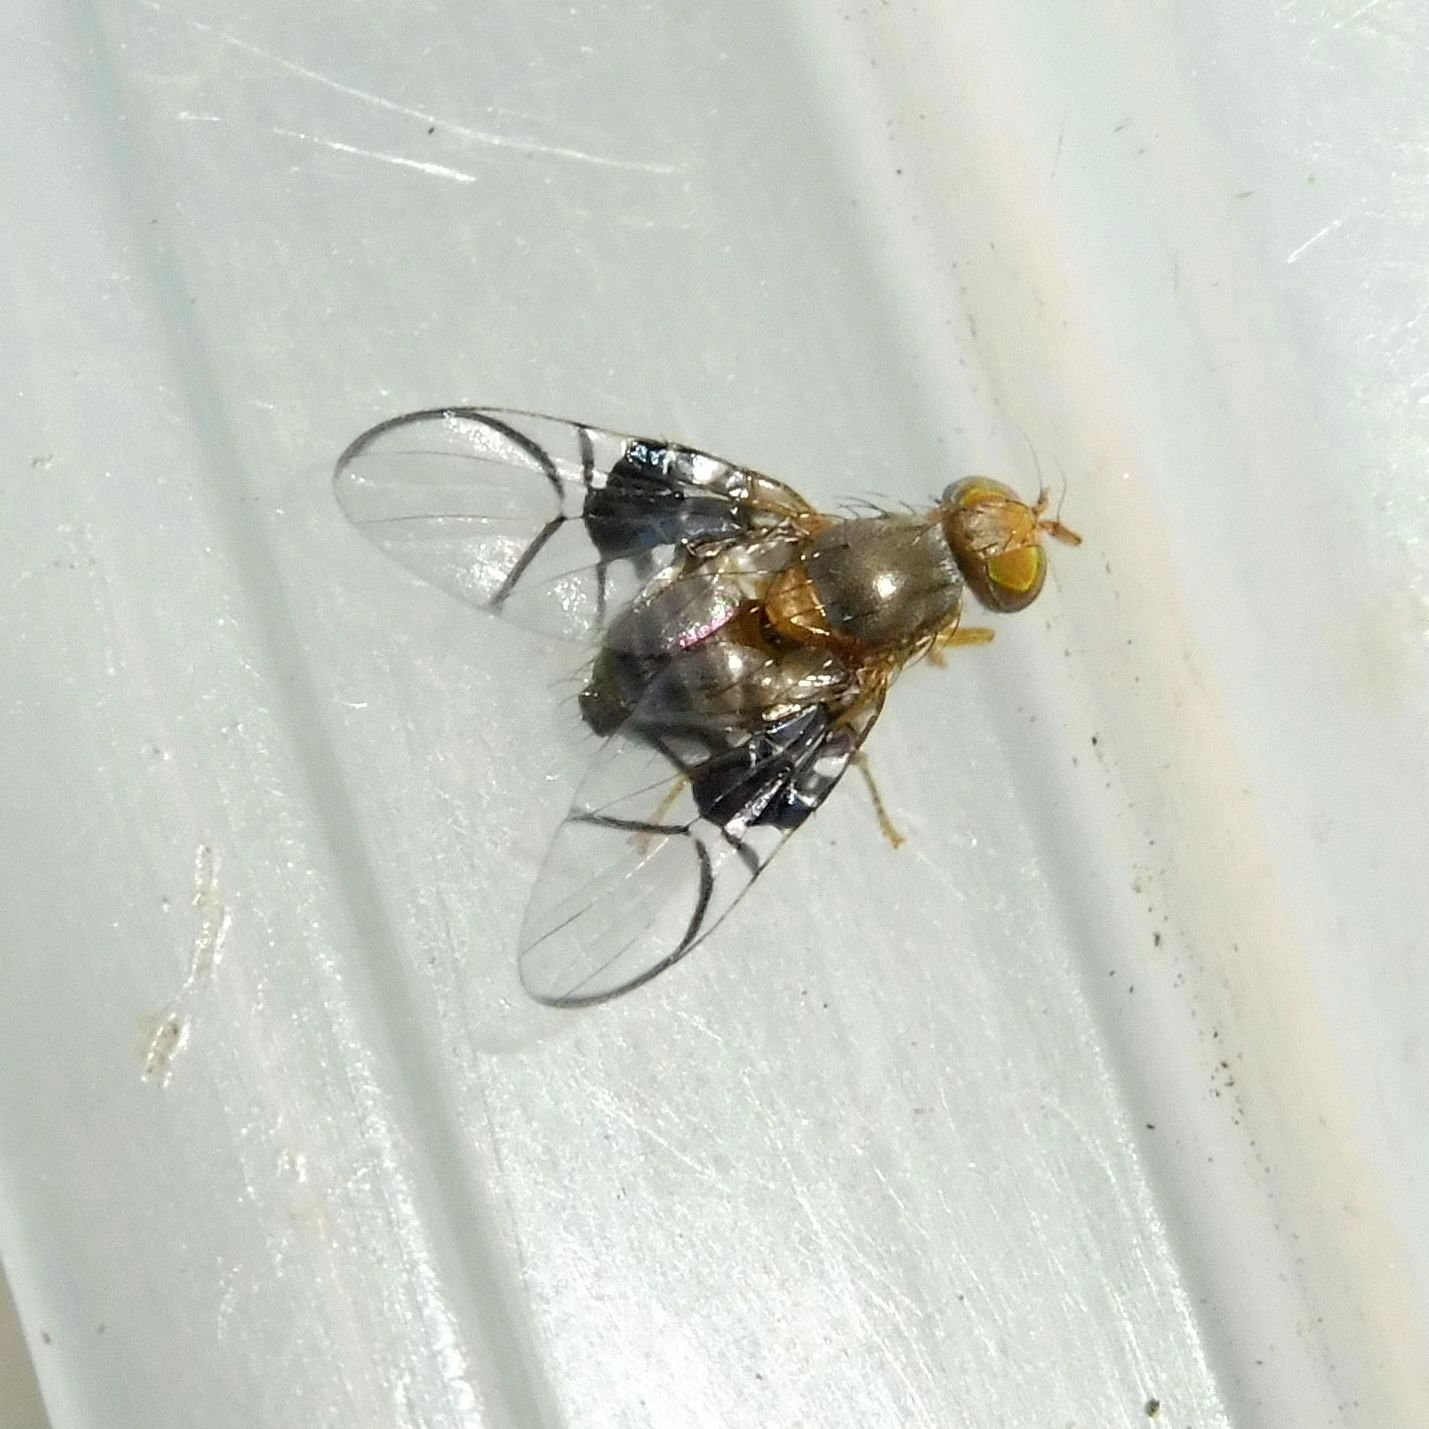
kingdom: Animalia
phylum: Arthropoda
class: Insecta
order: Diptera
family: Tephritidae
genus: Anomoia
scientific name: Anomoia purmunda
